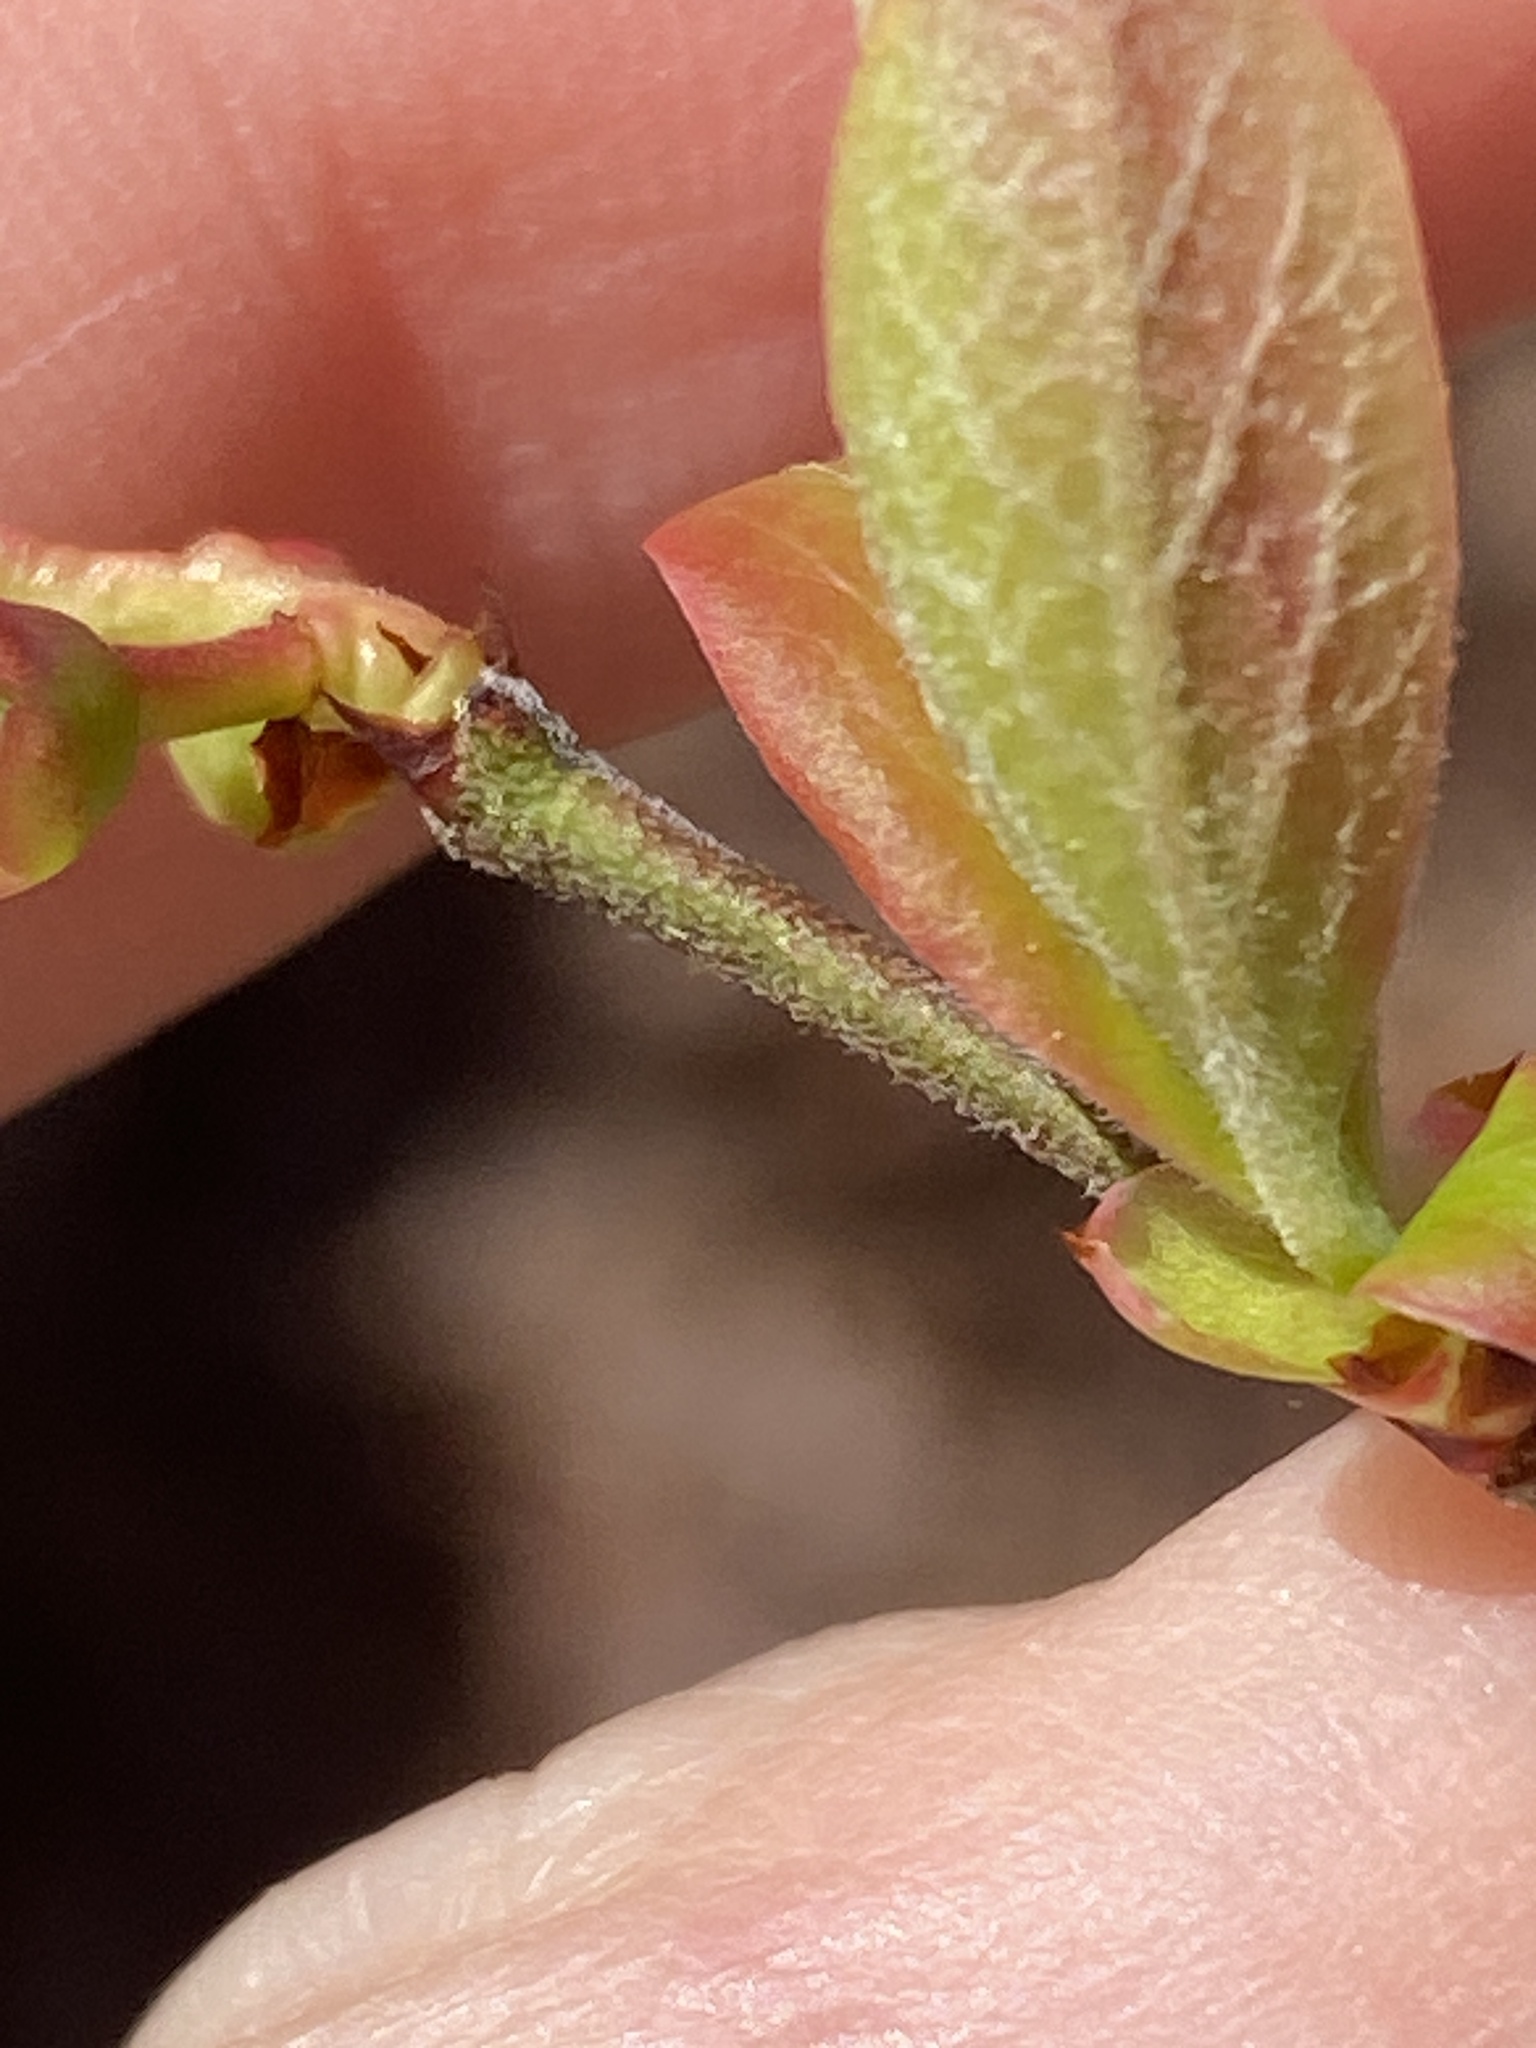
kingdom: Plantae
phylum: Tracheophyta
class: Magnoliopsida
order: Ericales
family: Ericaceae
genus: Vaccinium
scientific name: Vaccinium corymbosum
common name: Blueberry
